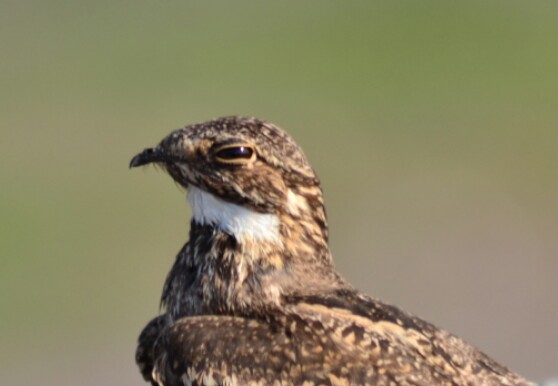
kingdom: Animalia
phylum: Chordata
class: Aves
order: Caprimulgiformes
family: Caprimulgidae
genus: Chordeiles
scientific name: Chordeiles acutipennis
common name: Lesser nighthawk
